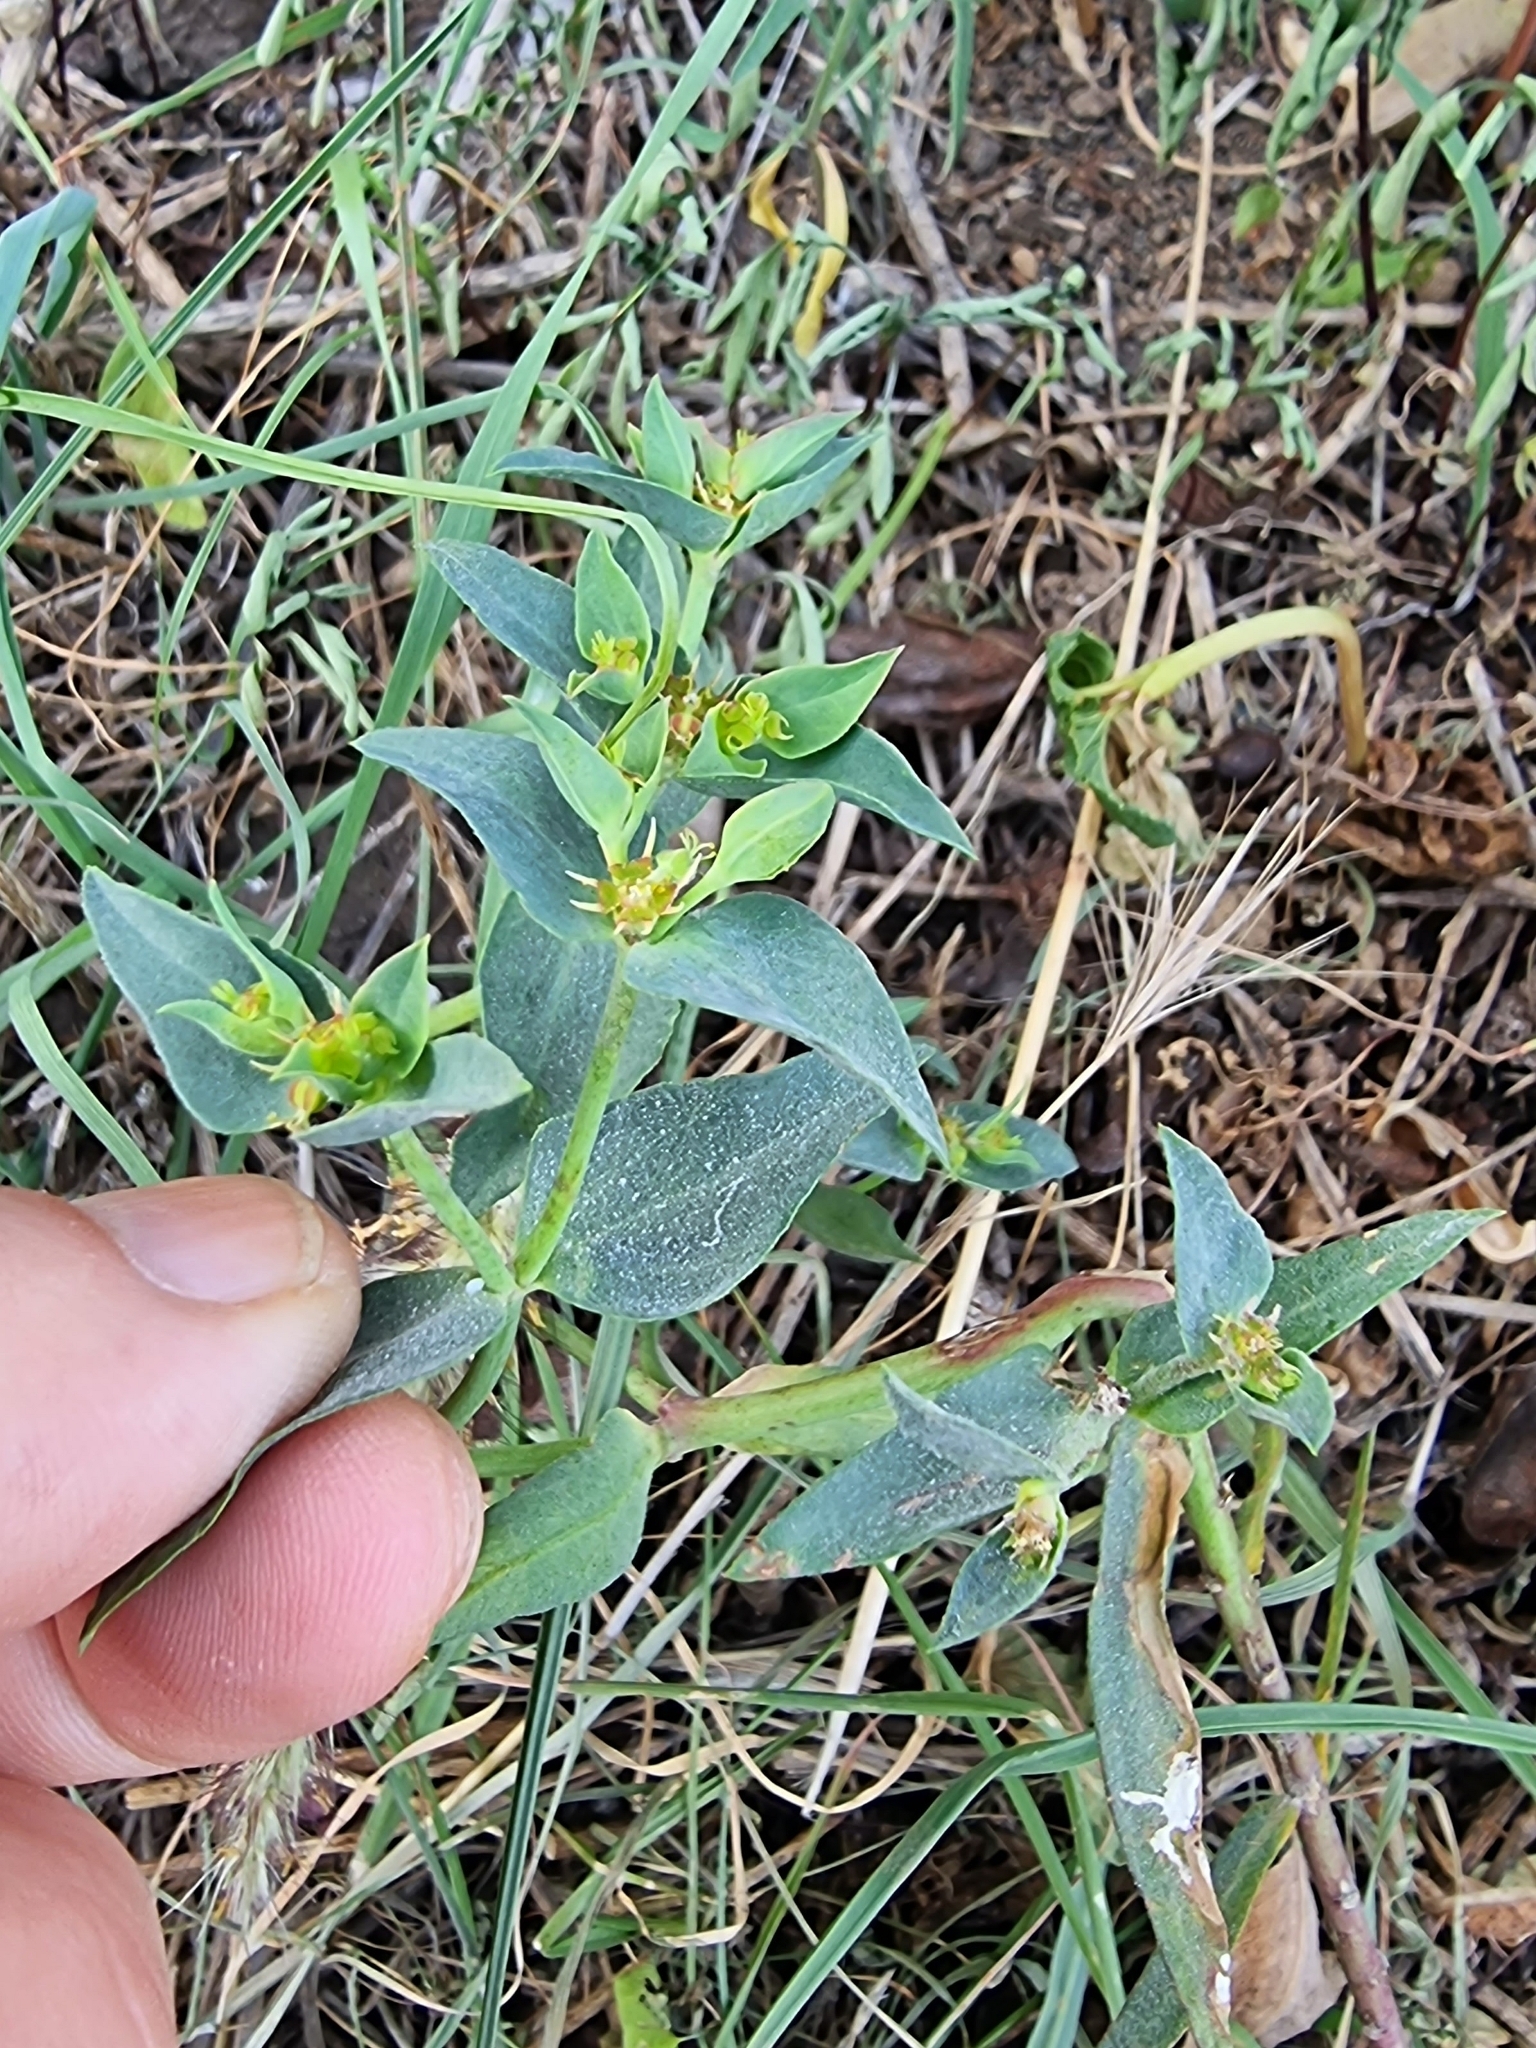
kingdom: Plantae
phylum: Tracheophyta
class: Magnoliopsida
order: Malpighiales
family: Euphorbiaceae
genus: Euphorbia
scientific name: Euphorbia exigua
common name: Dwarf spurge
